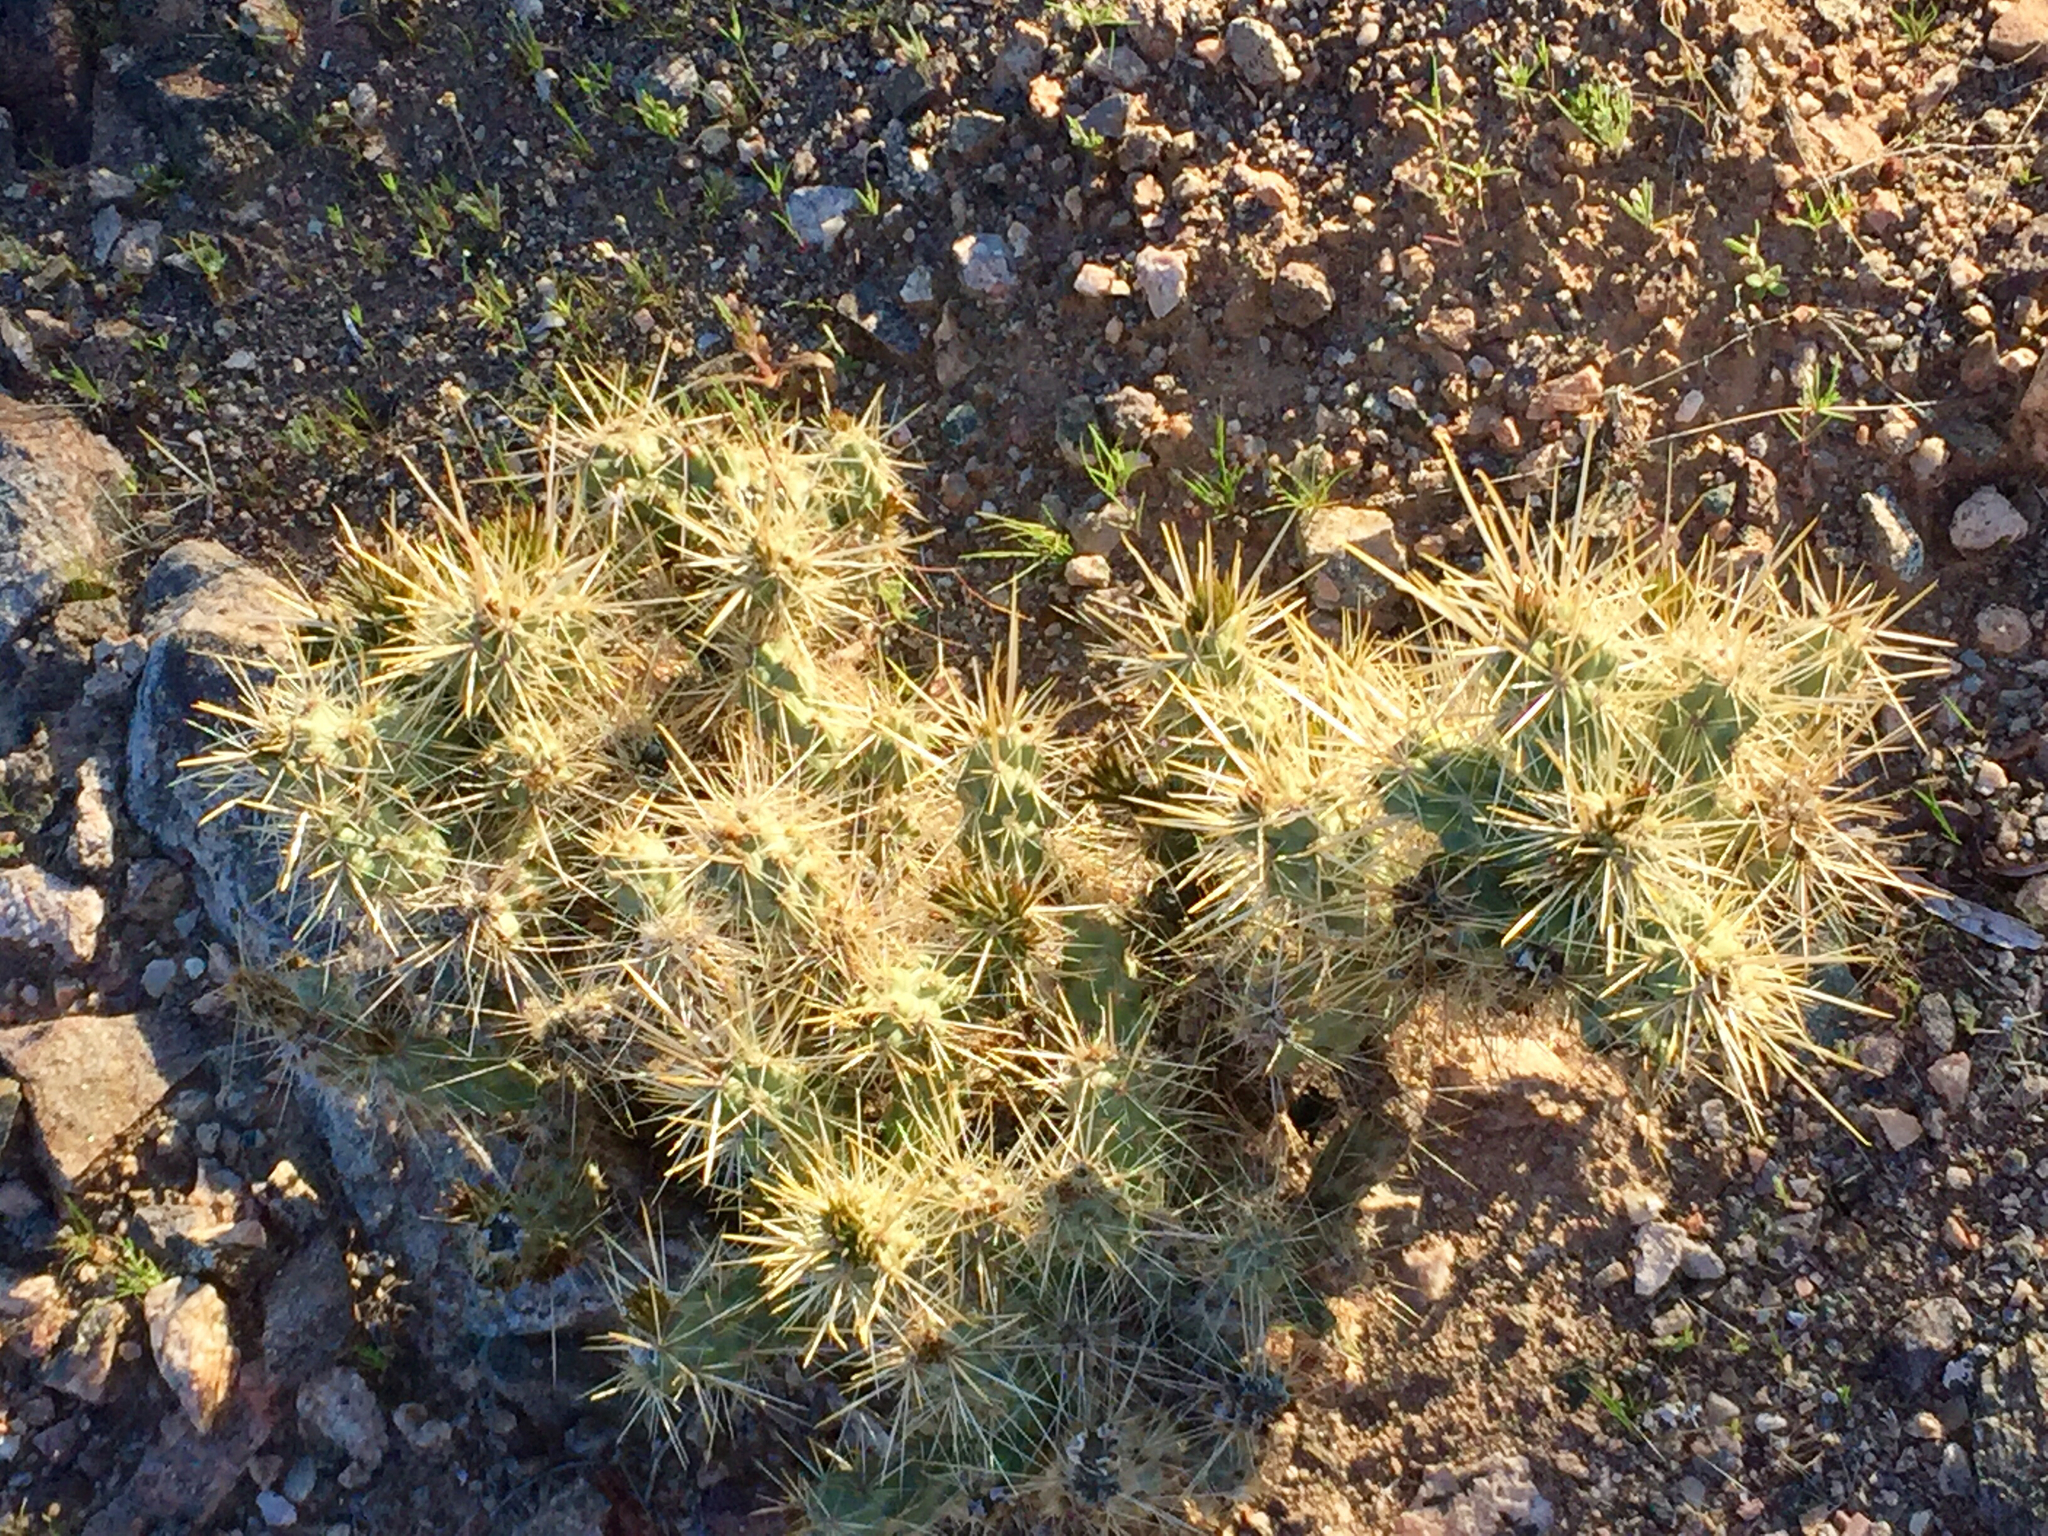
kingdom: Plantae
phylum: Tracheophyta
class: Magnoliopsida
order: Caryophyllales
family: Cactaceae
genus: Cylindropuntia
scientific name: Cylindropuntia echinocarpa
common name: Ground cholla
